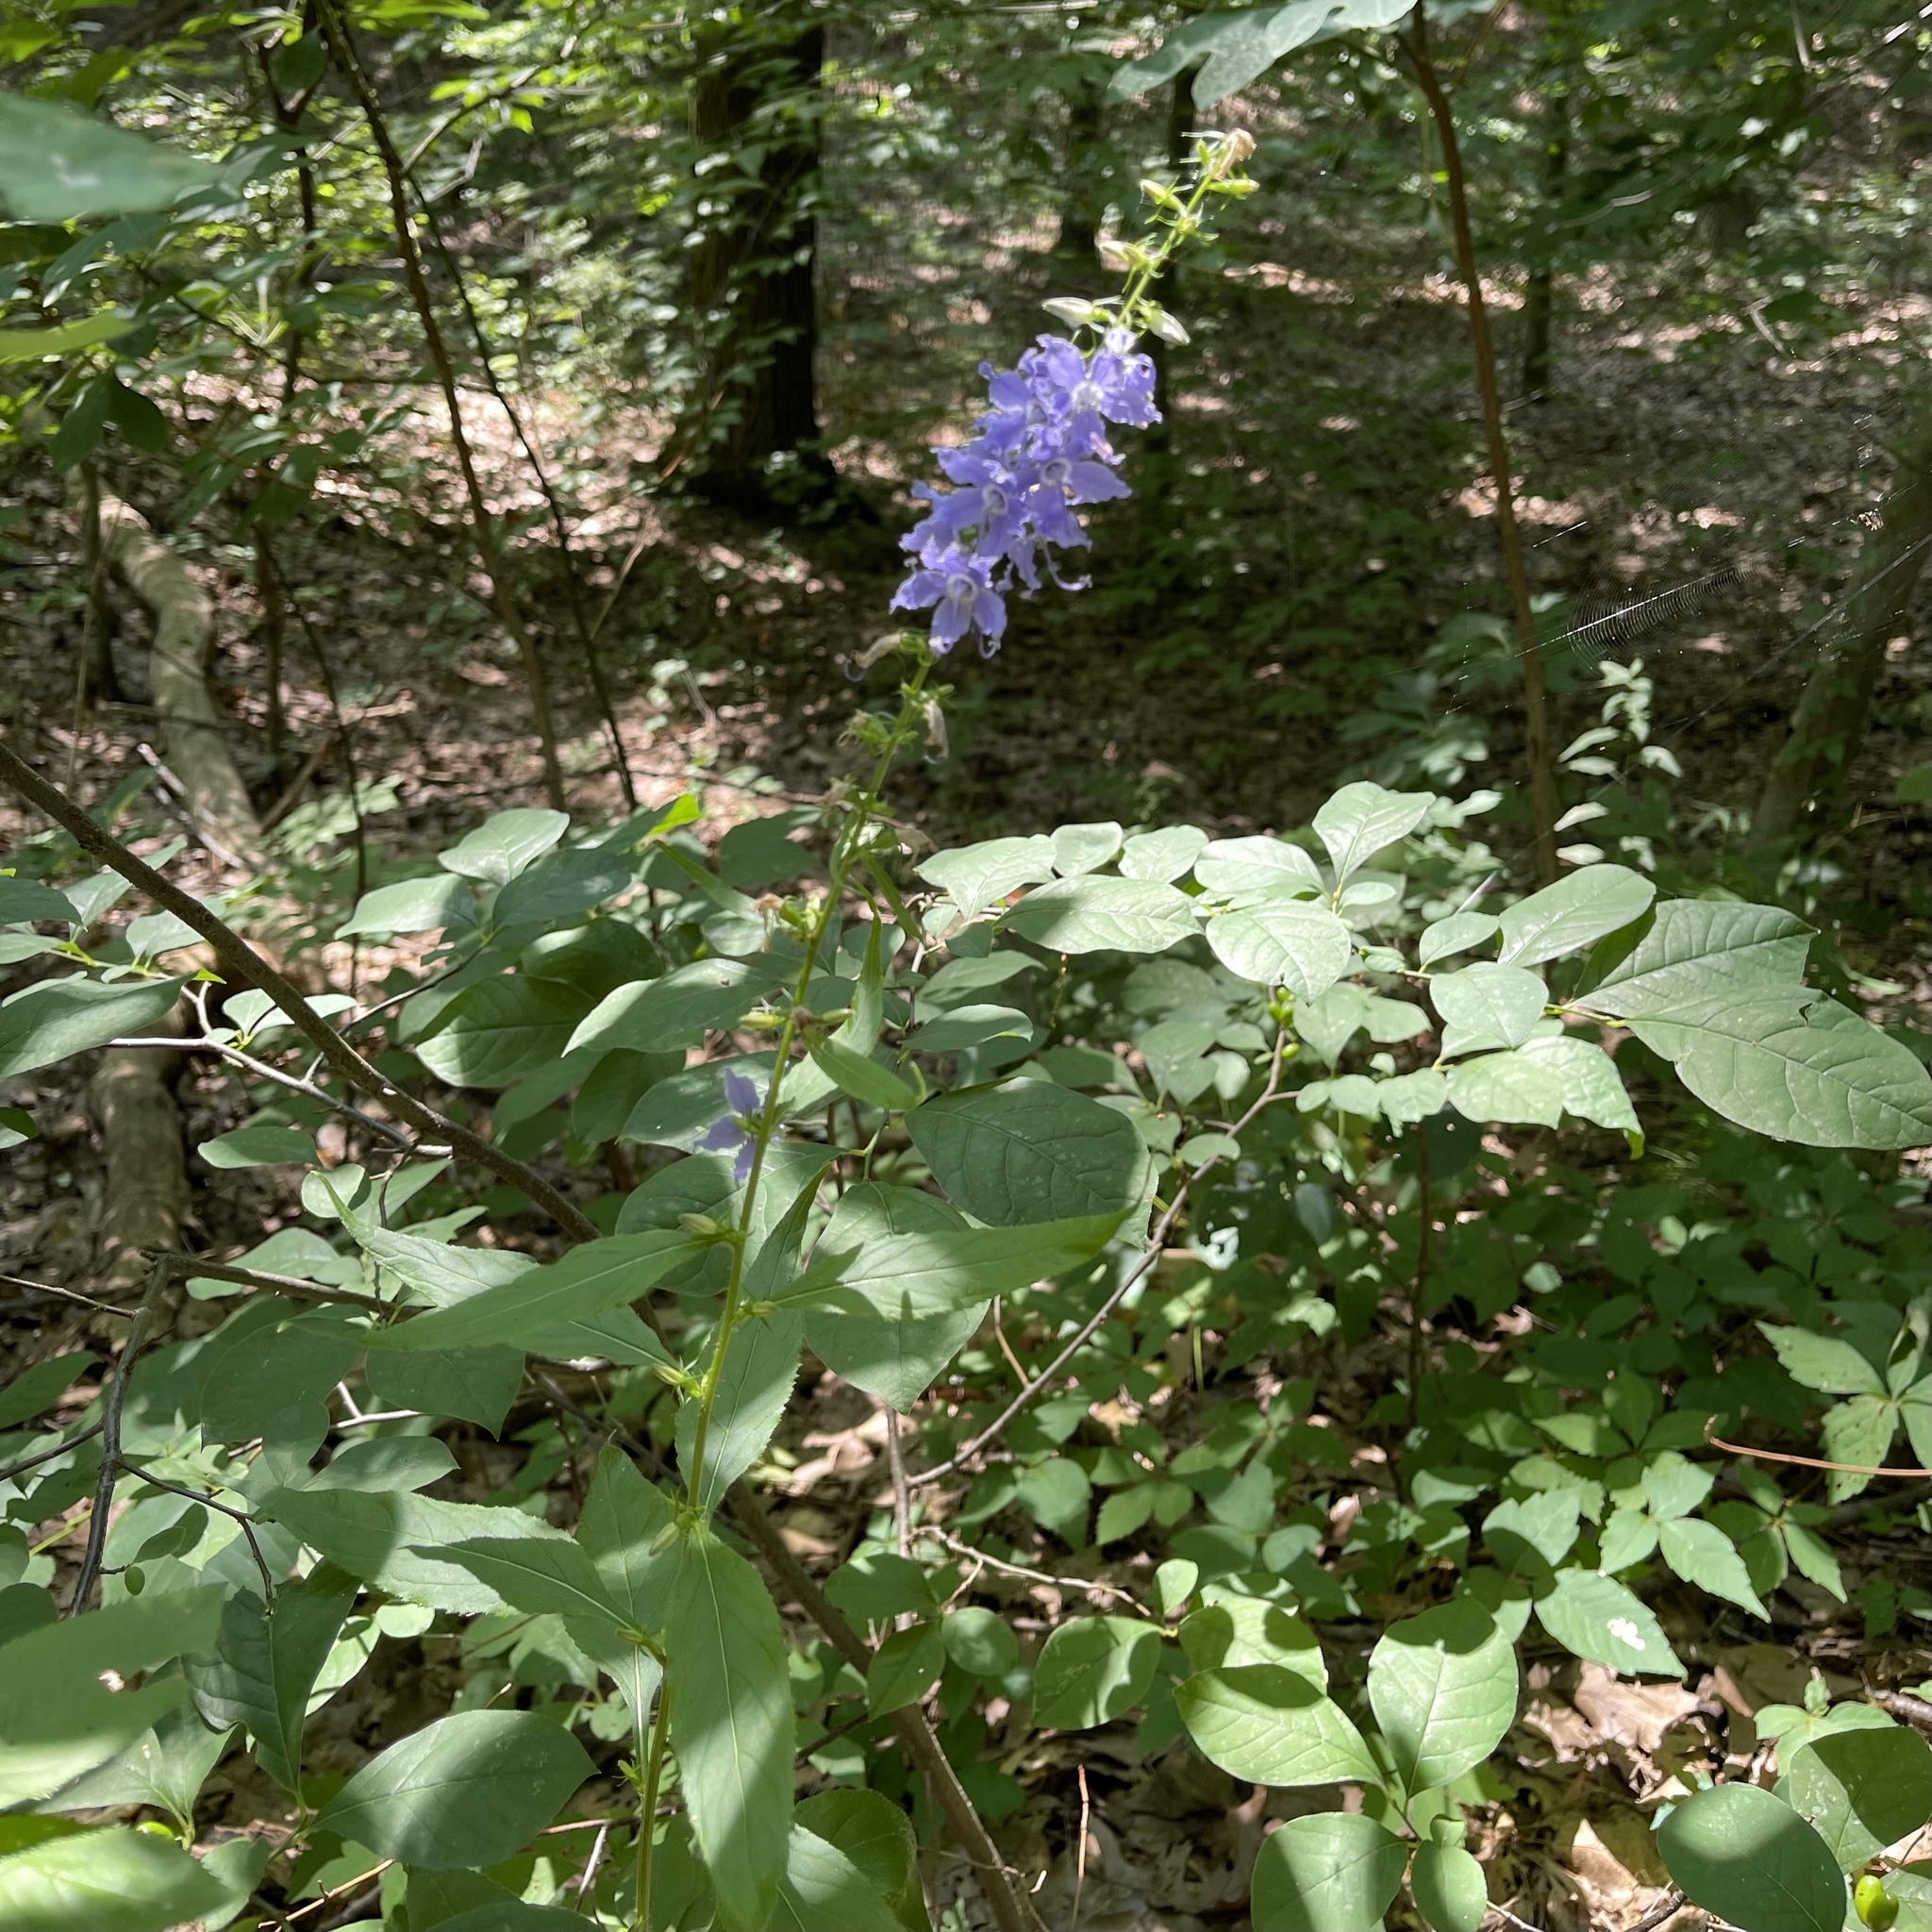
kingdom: Plantae
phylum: Tracheophyta
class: Magnoliopsida
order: Asterales
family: Campanulaceae
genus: Campanulastrum
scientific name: Campanulastrum americanum
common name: American bellflower
